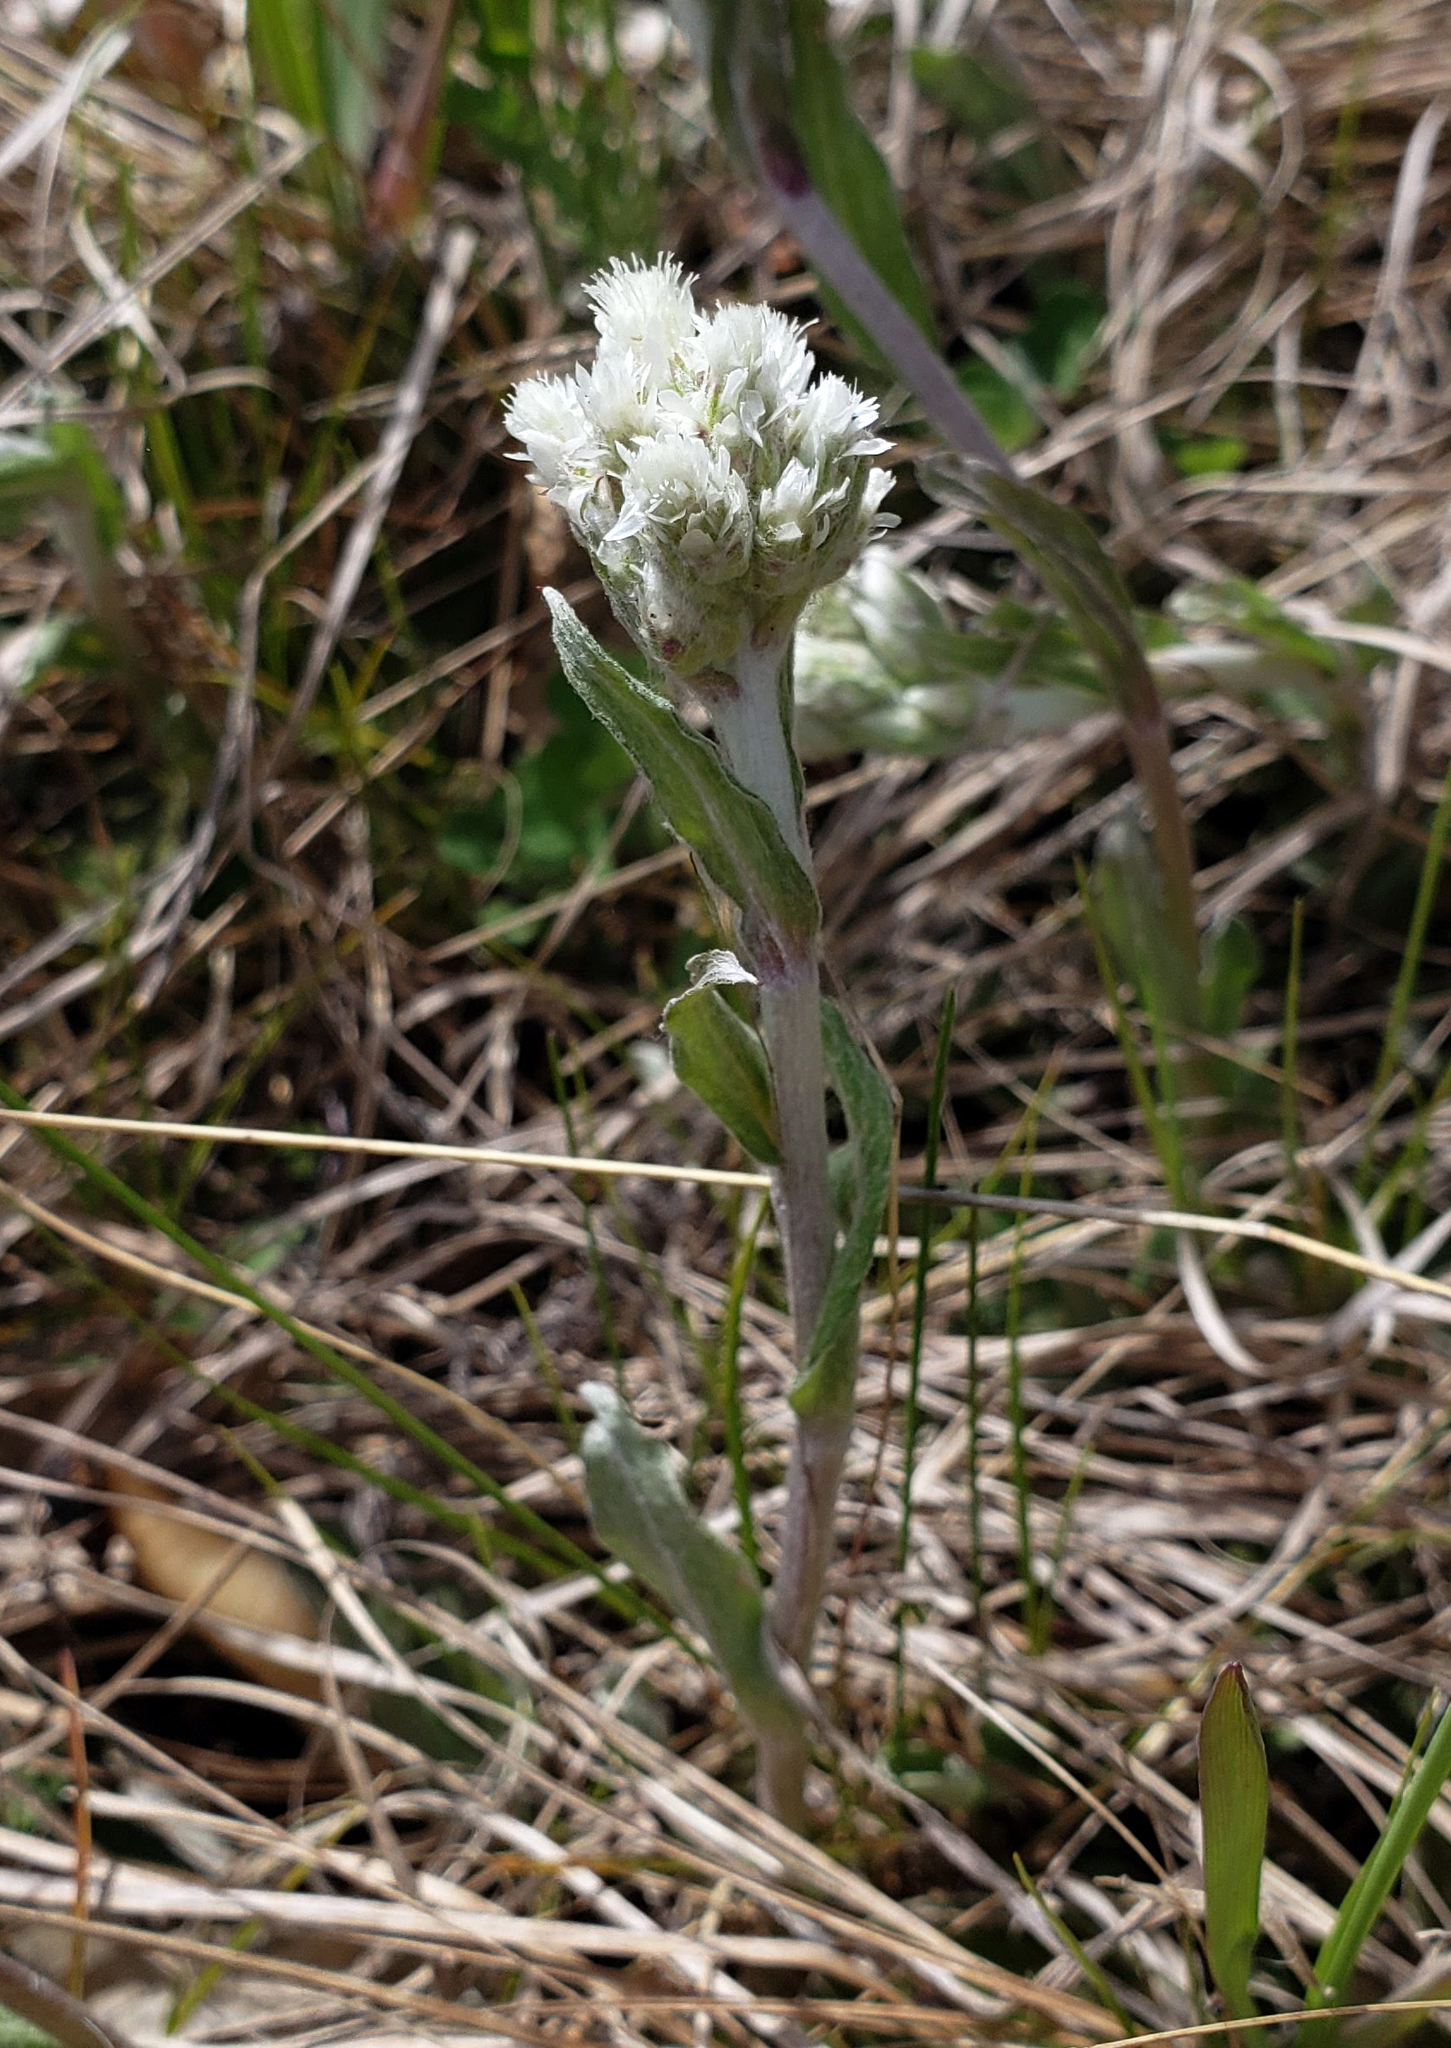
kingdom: Plantae
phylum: Tracheophyta
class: Magnoliopsida
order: Asterales
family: Asteraceae
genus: Antennaria
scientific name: Antennaria parlinii
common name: Parlin's pussytoes
